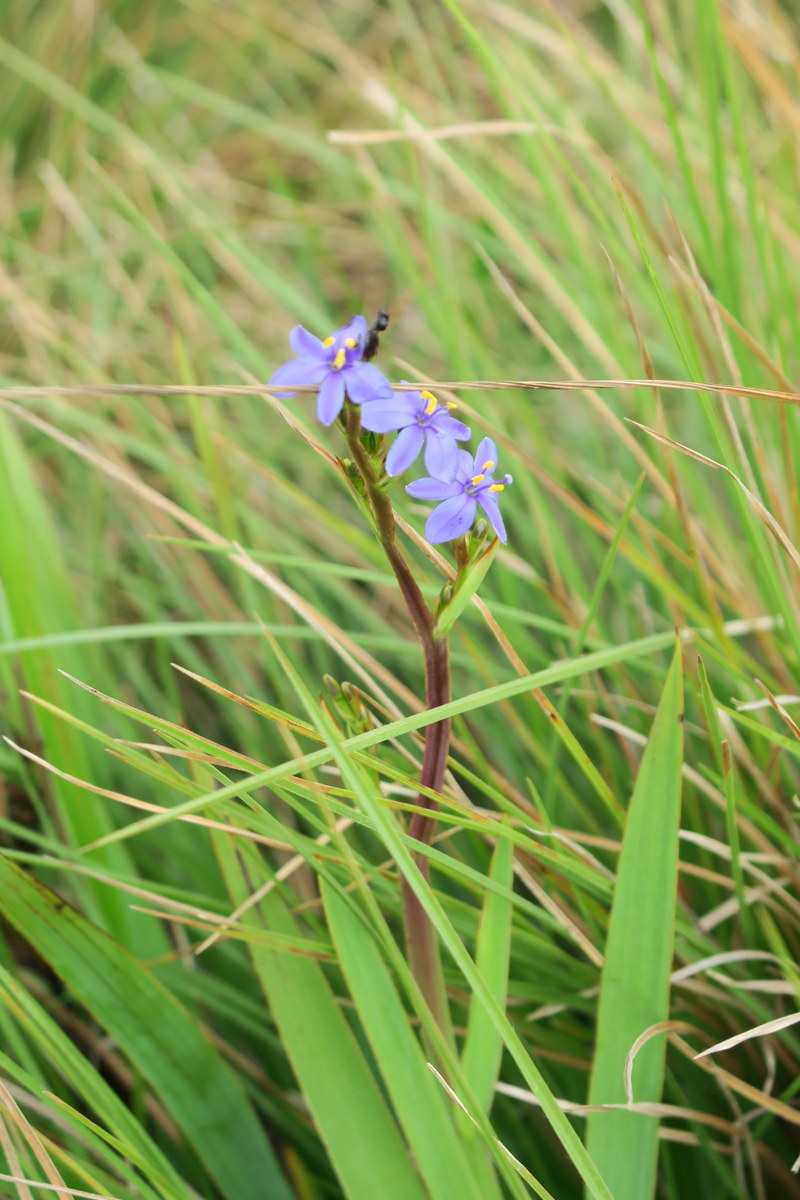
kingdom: Plantae
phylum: Tracheophyta
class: Liliopsida
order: Asparagales
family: Iridaceae
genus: Aristea
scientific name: Aristea ecklonii
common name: Blue corn-lily
